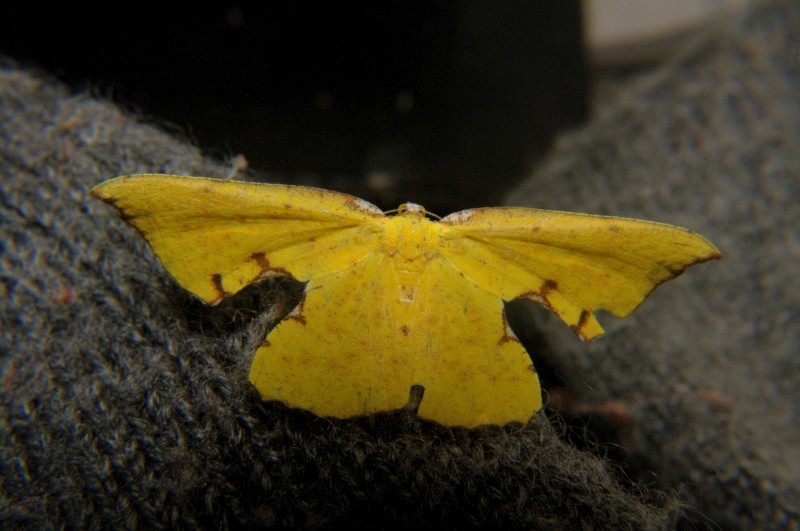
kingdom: Animalia
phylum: Arthropoda
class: Insecta
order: Lepidoptera
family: Geometridae
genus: Corymica
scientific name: Corymica spatiosa
